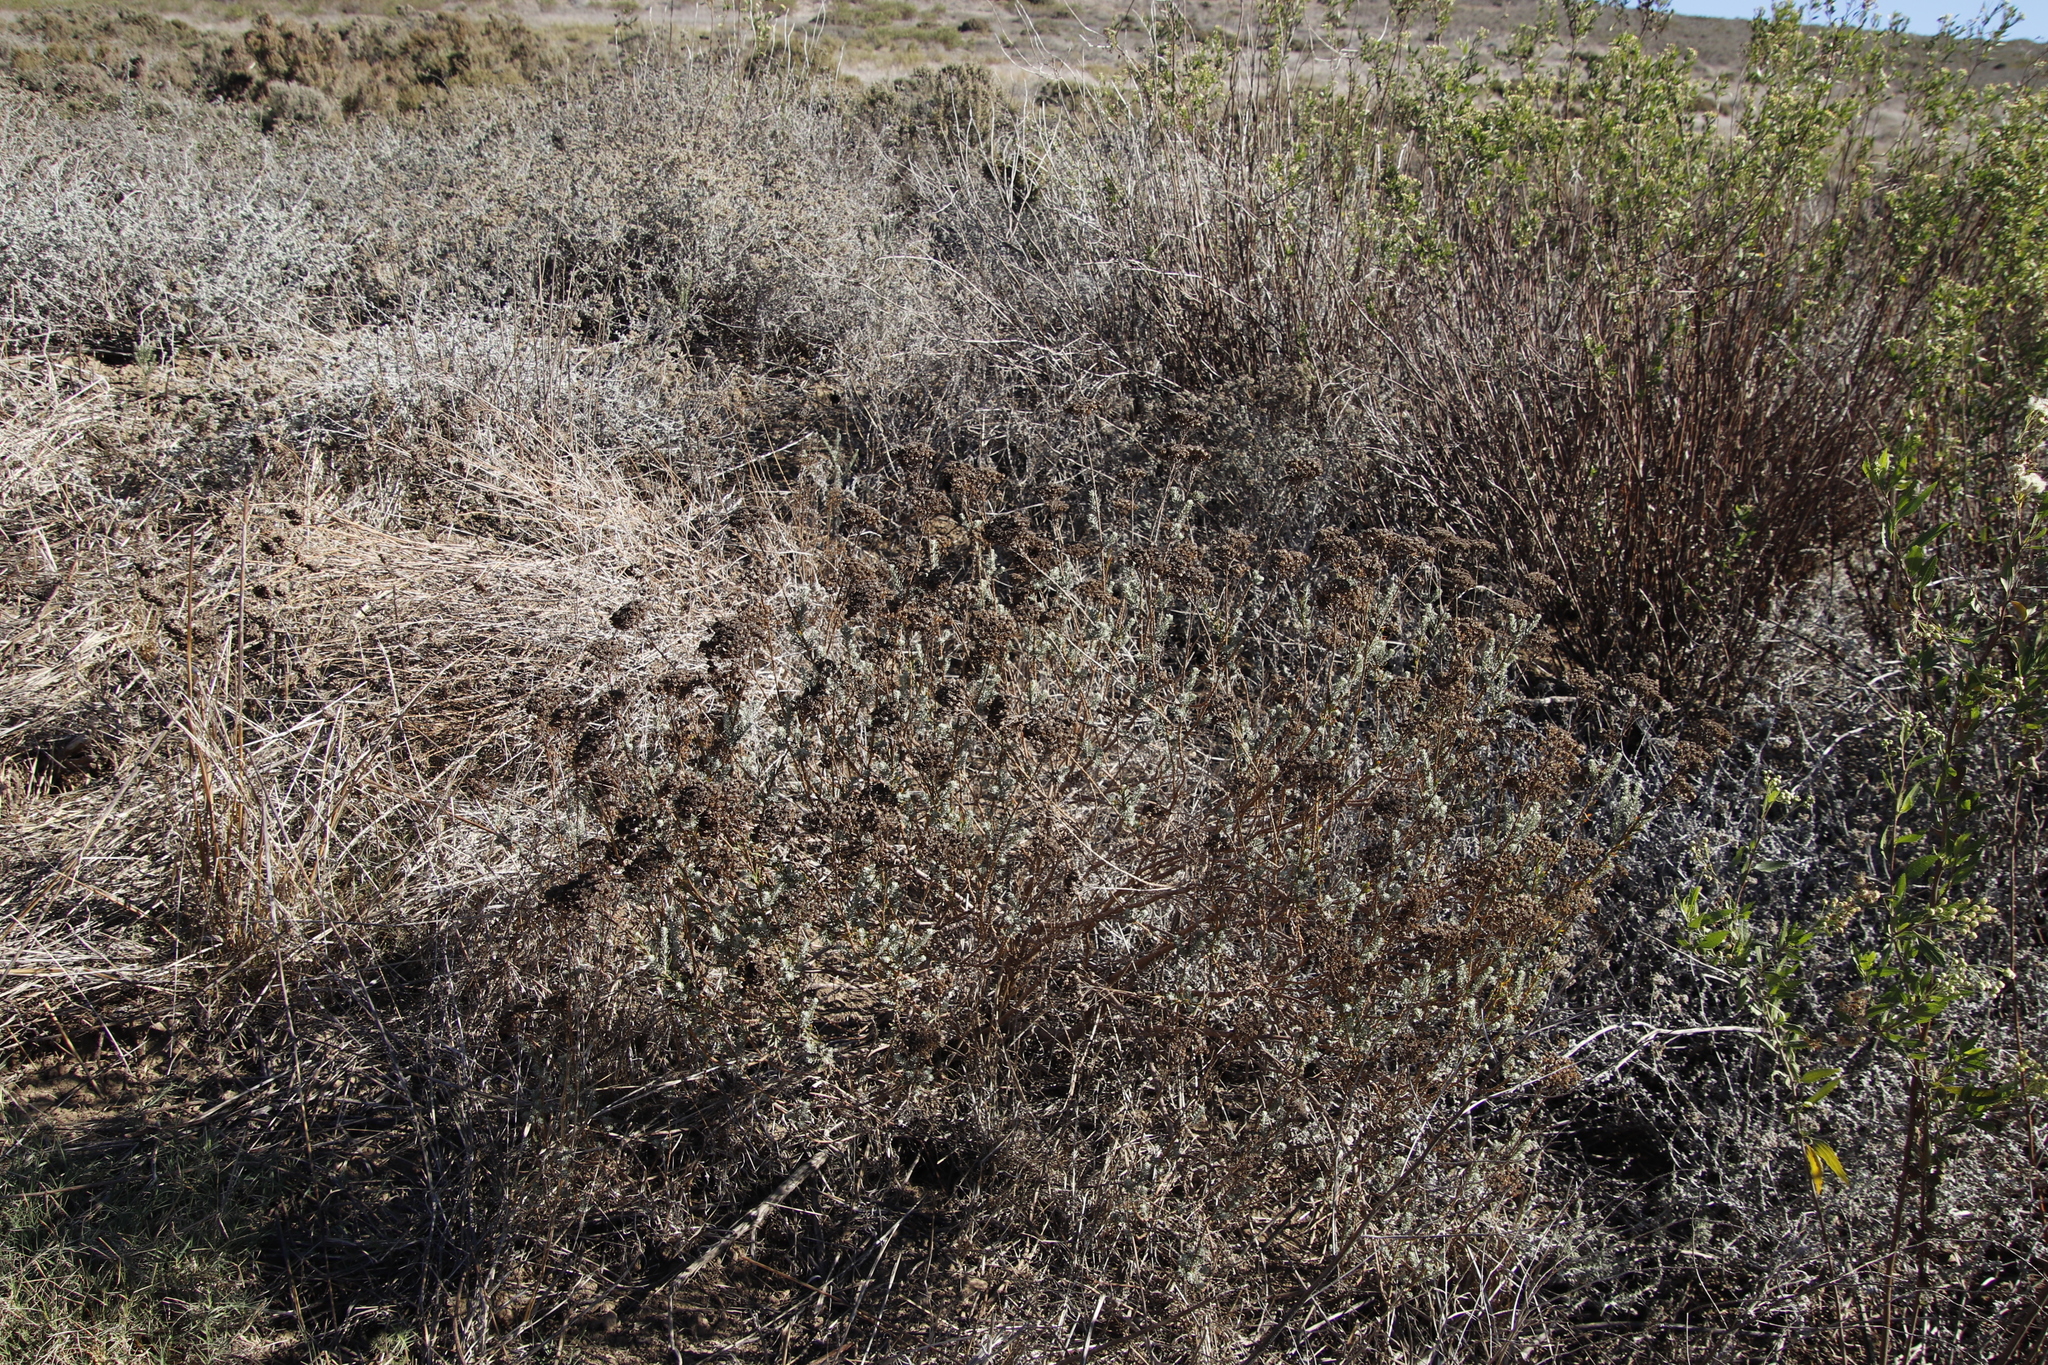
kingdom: Plantae
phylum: Tracheophyta
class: Magnoliopsida
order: Asterales
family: Asteraceae
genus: Athanasia
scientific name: Athanasia trifurcata
